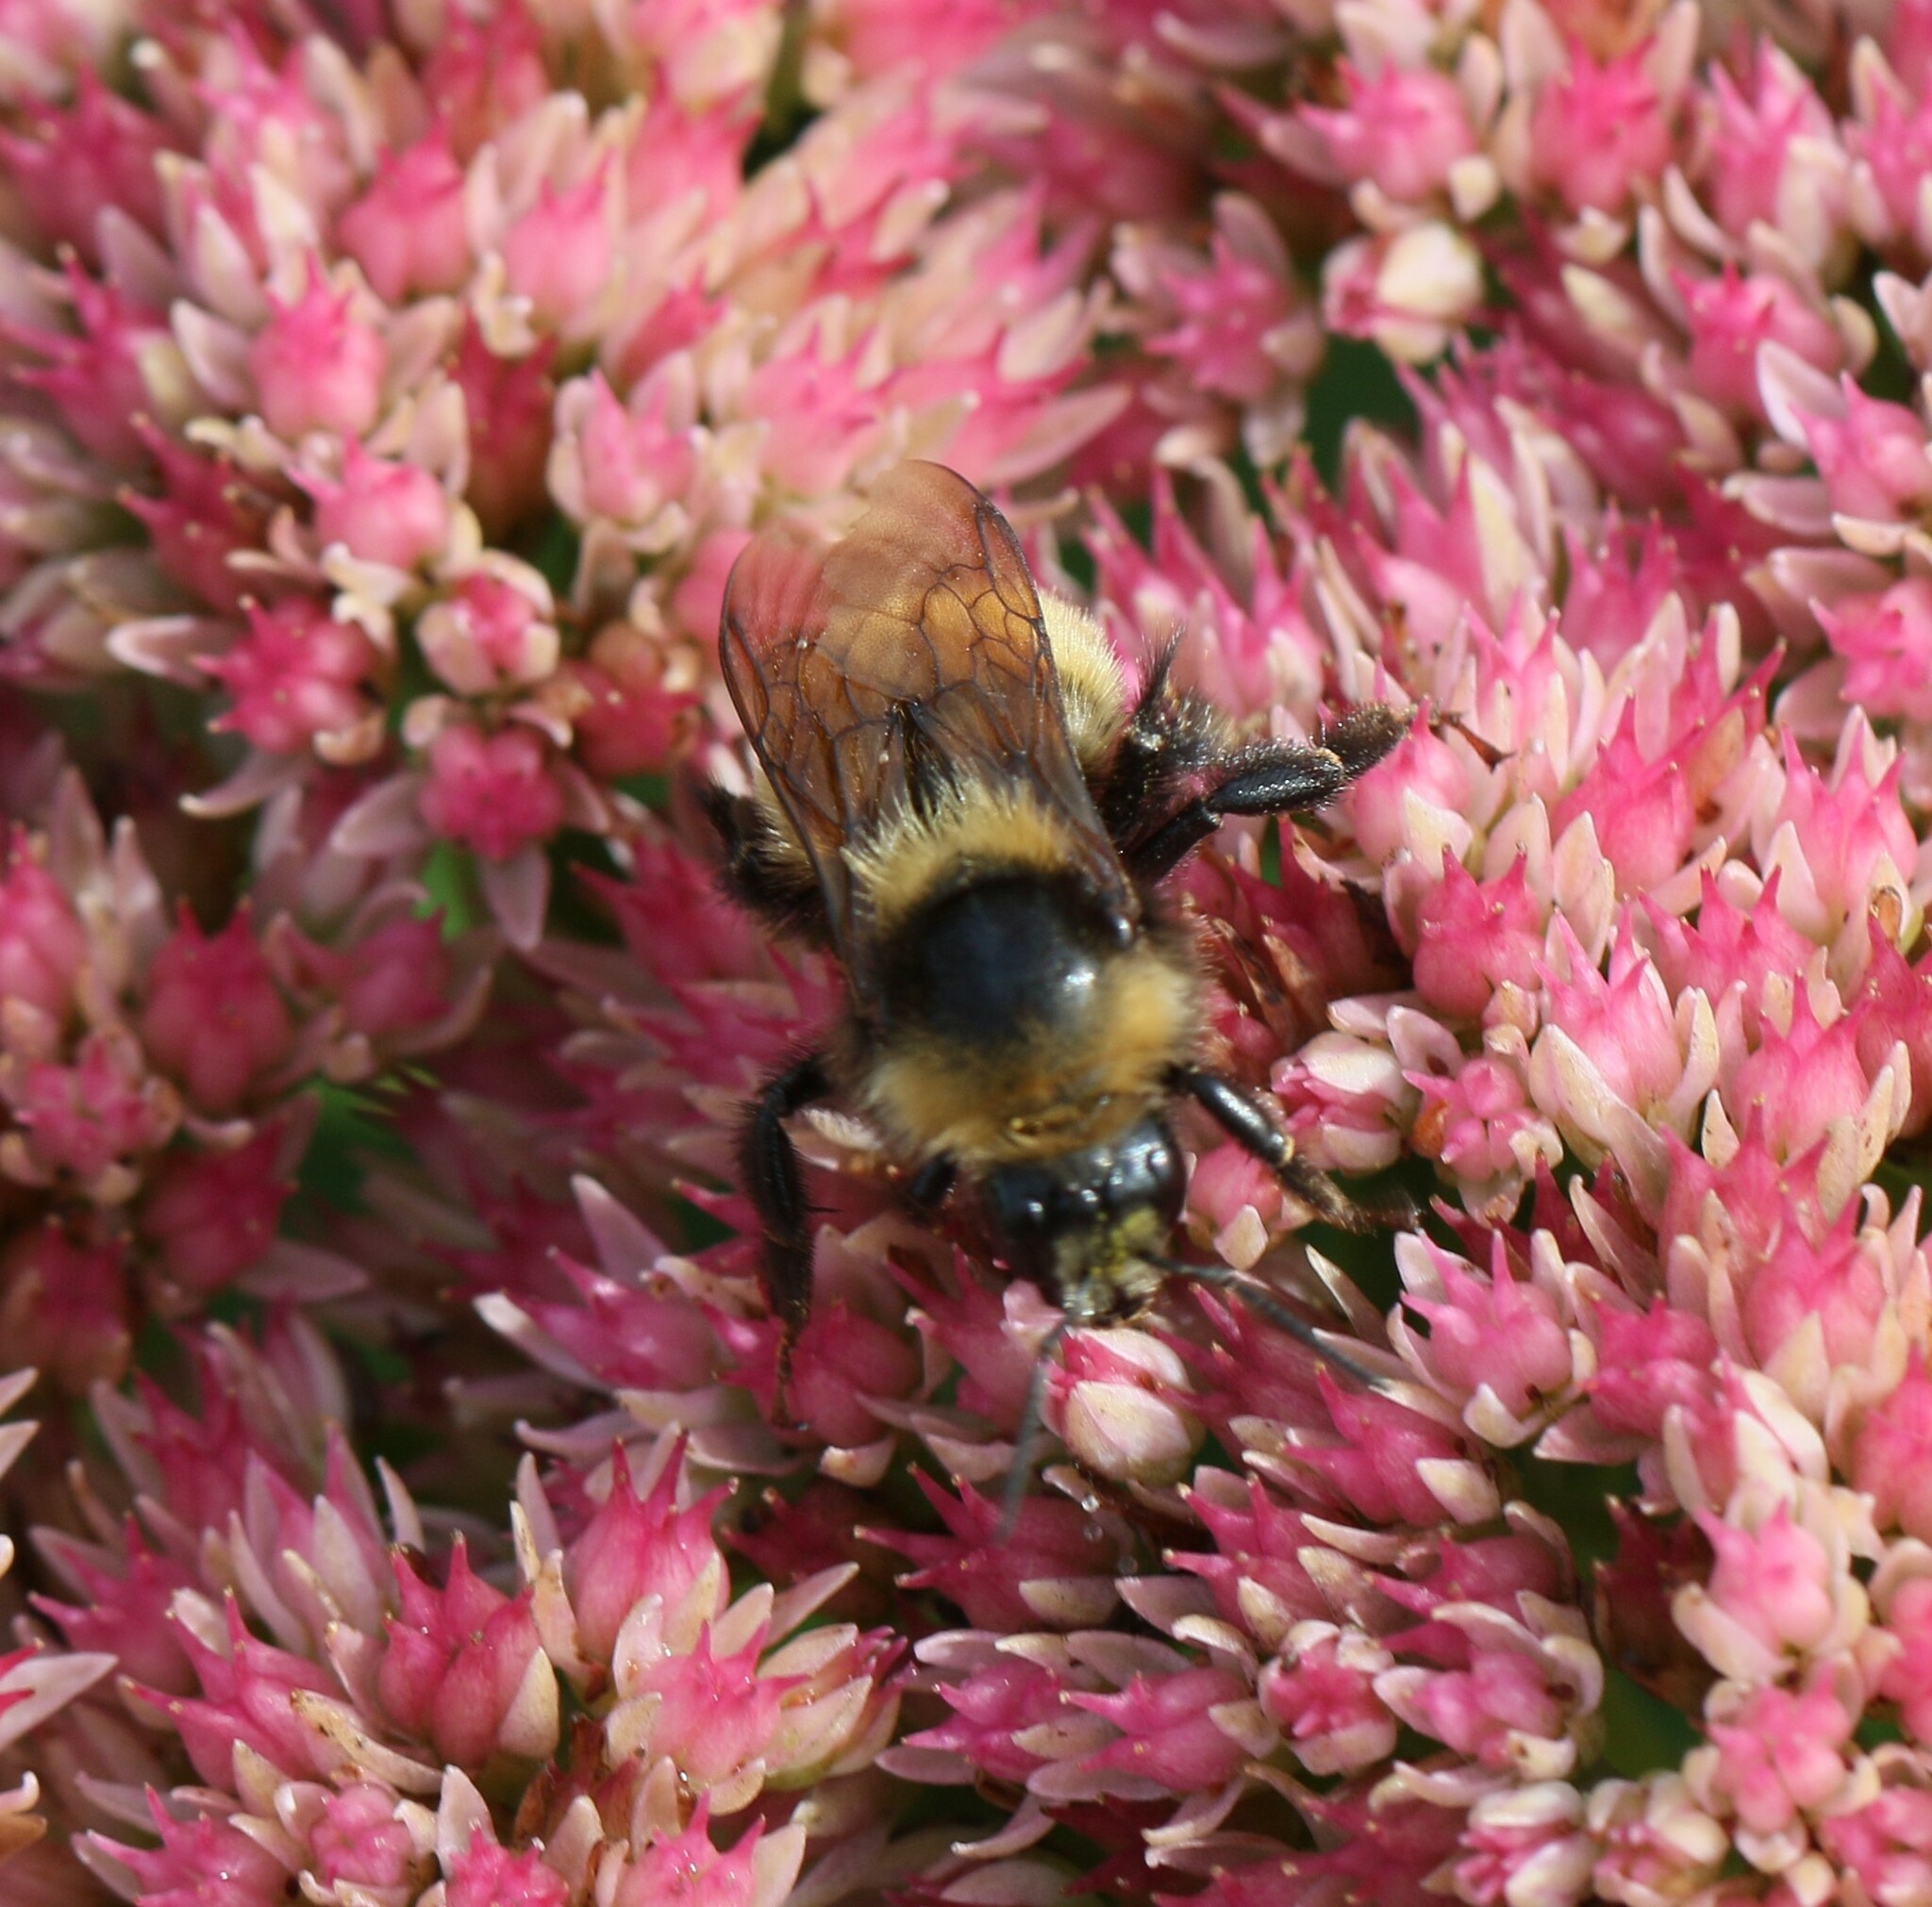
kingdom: Animalia
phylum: Arthropoda
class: Insecta
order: Hymenoptera
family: Apidae
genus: Bombus
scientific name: Bombus borealis
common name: Northern amber bumble bee
